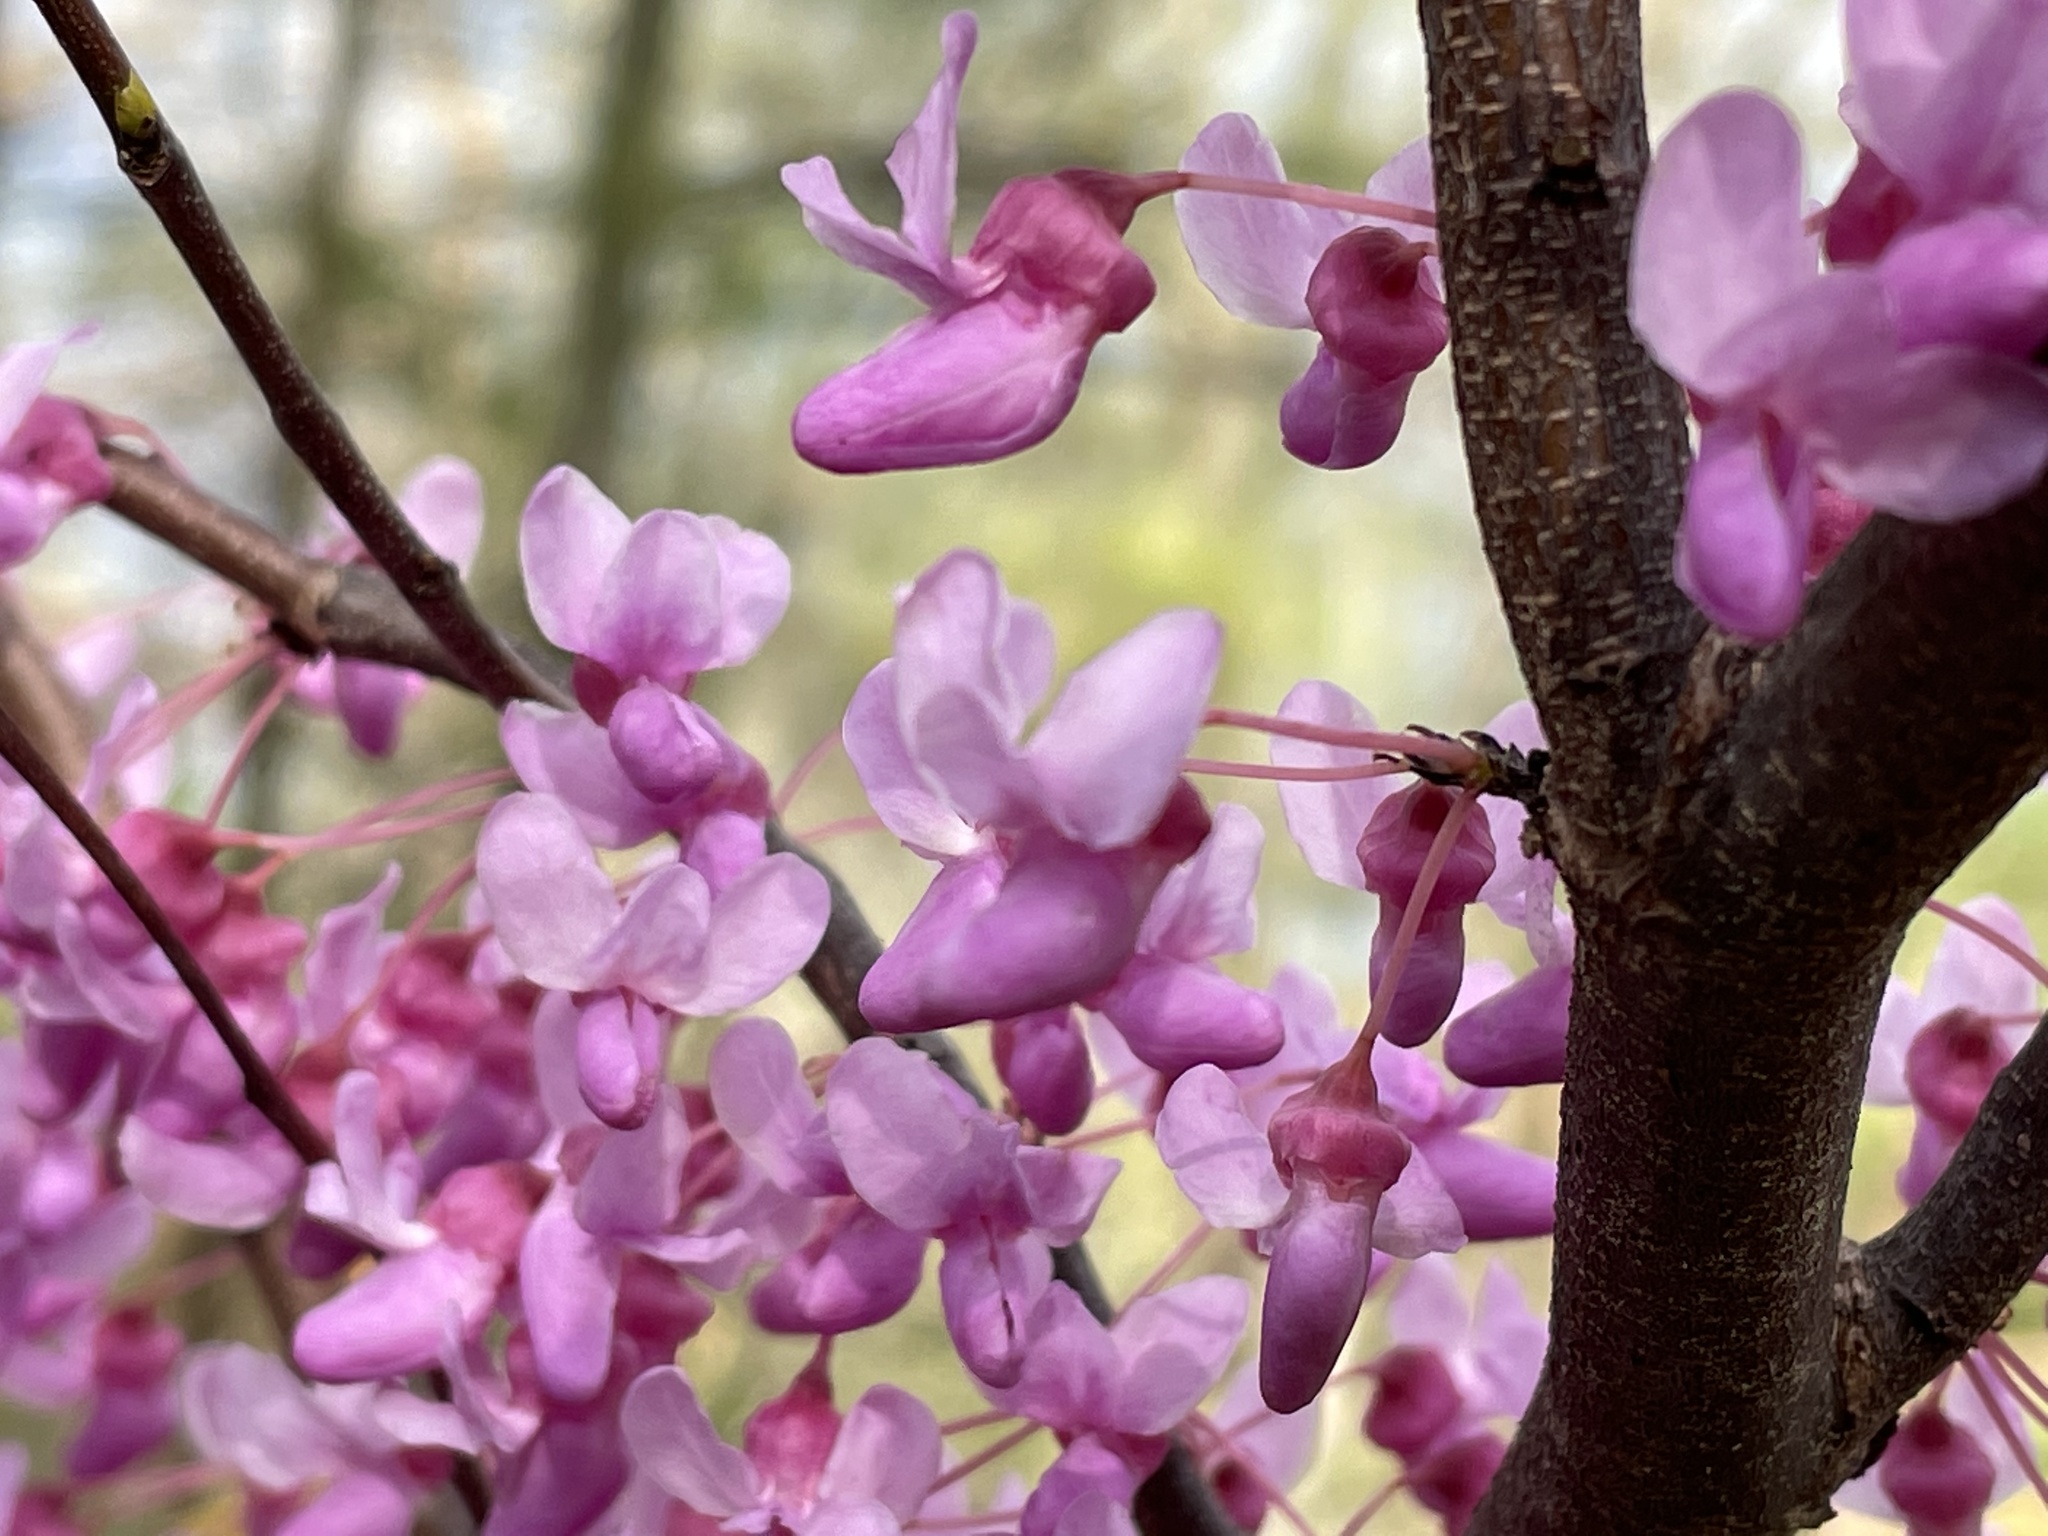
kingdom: Plantae
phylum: Tracheophyta
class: Magnoliopsida
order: Fabales
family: Fabaceae
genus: Cercis
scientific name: Cercis canadensis
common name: Eastern redbud
